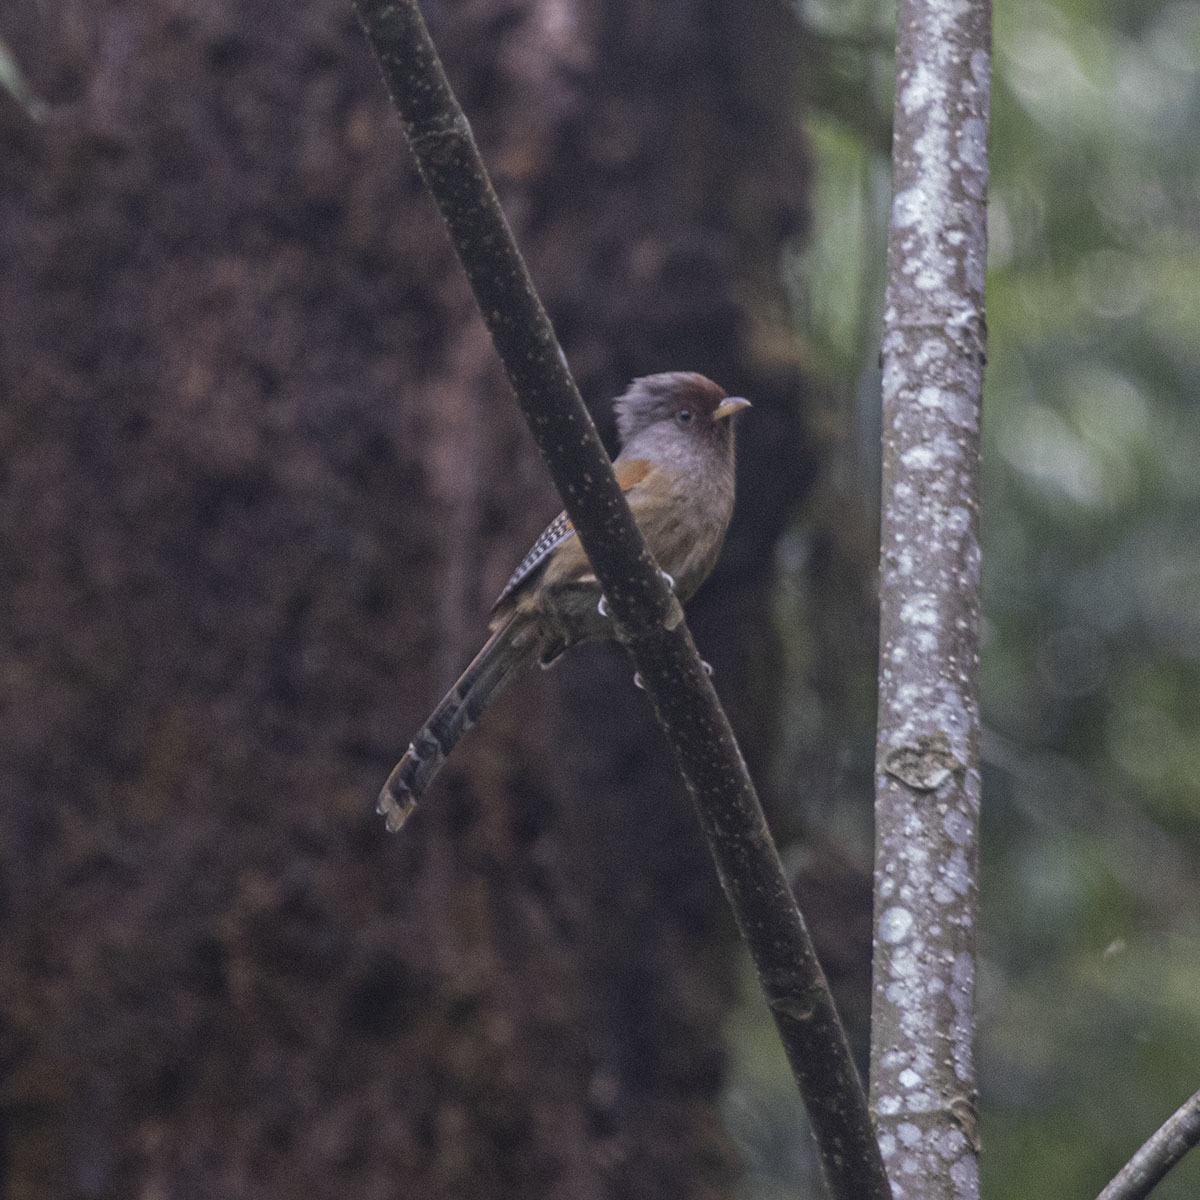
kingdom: Animalia
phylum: Chordata
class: Aves
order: Passeriformes
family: Leiothrichidae
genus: Actinodura
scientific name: Actinodura egertoni
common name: Rusty-fronted barwing
